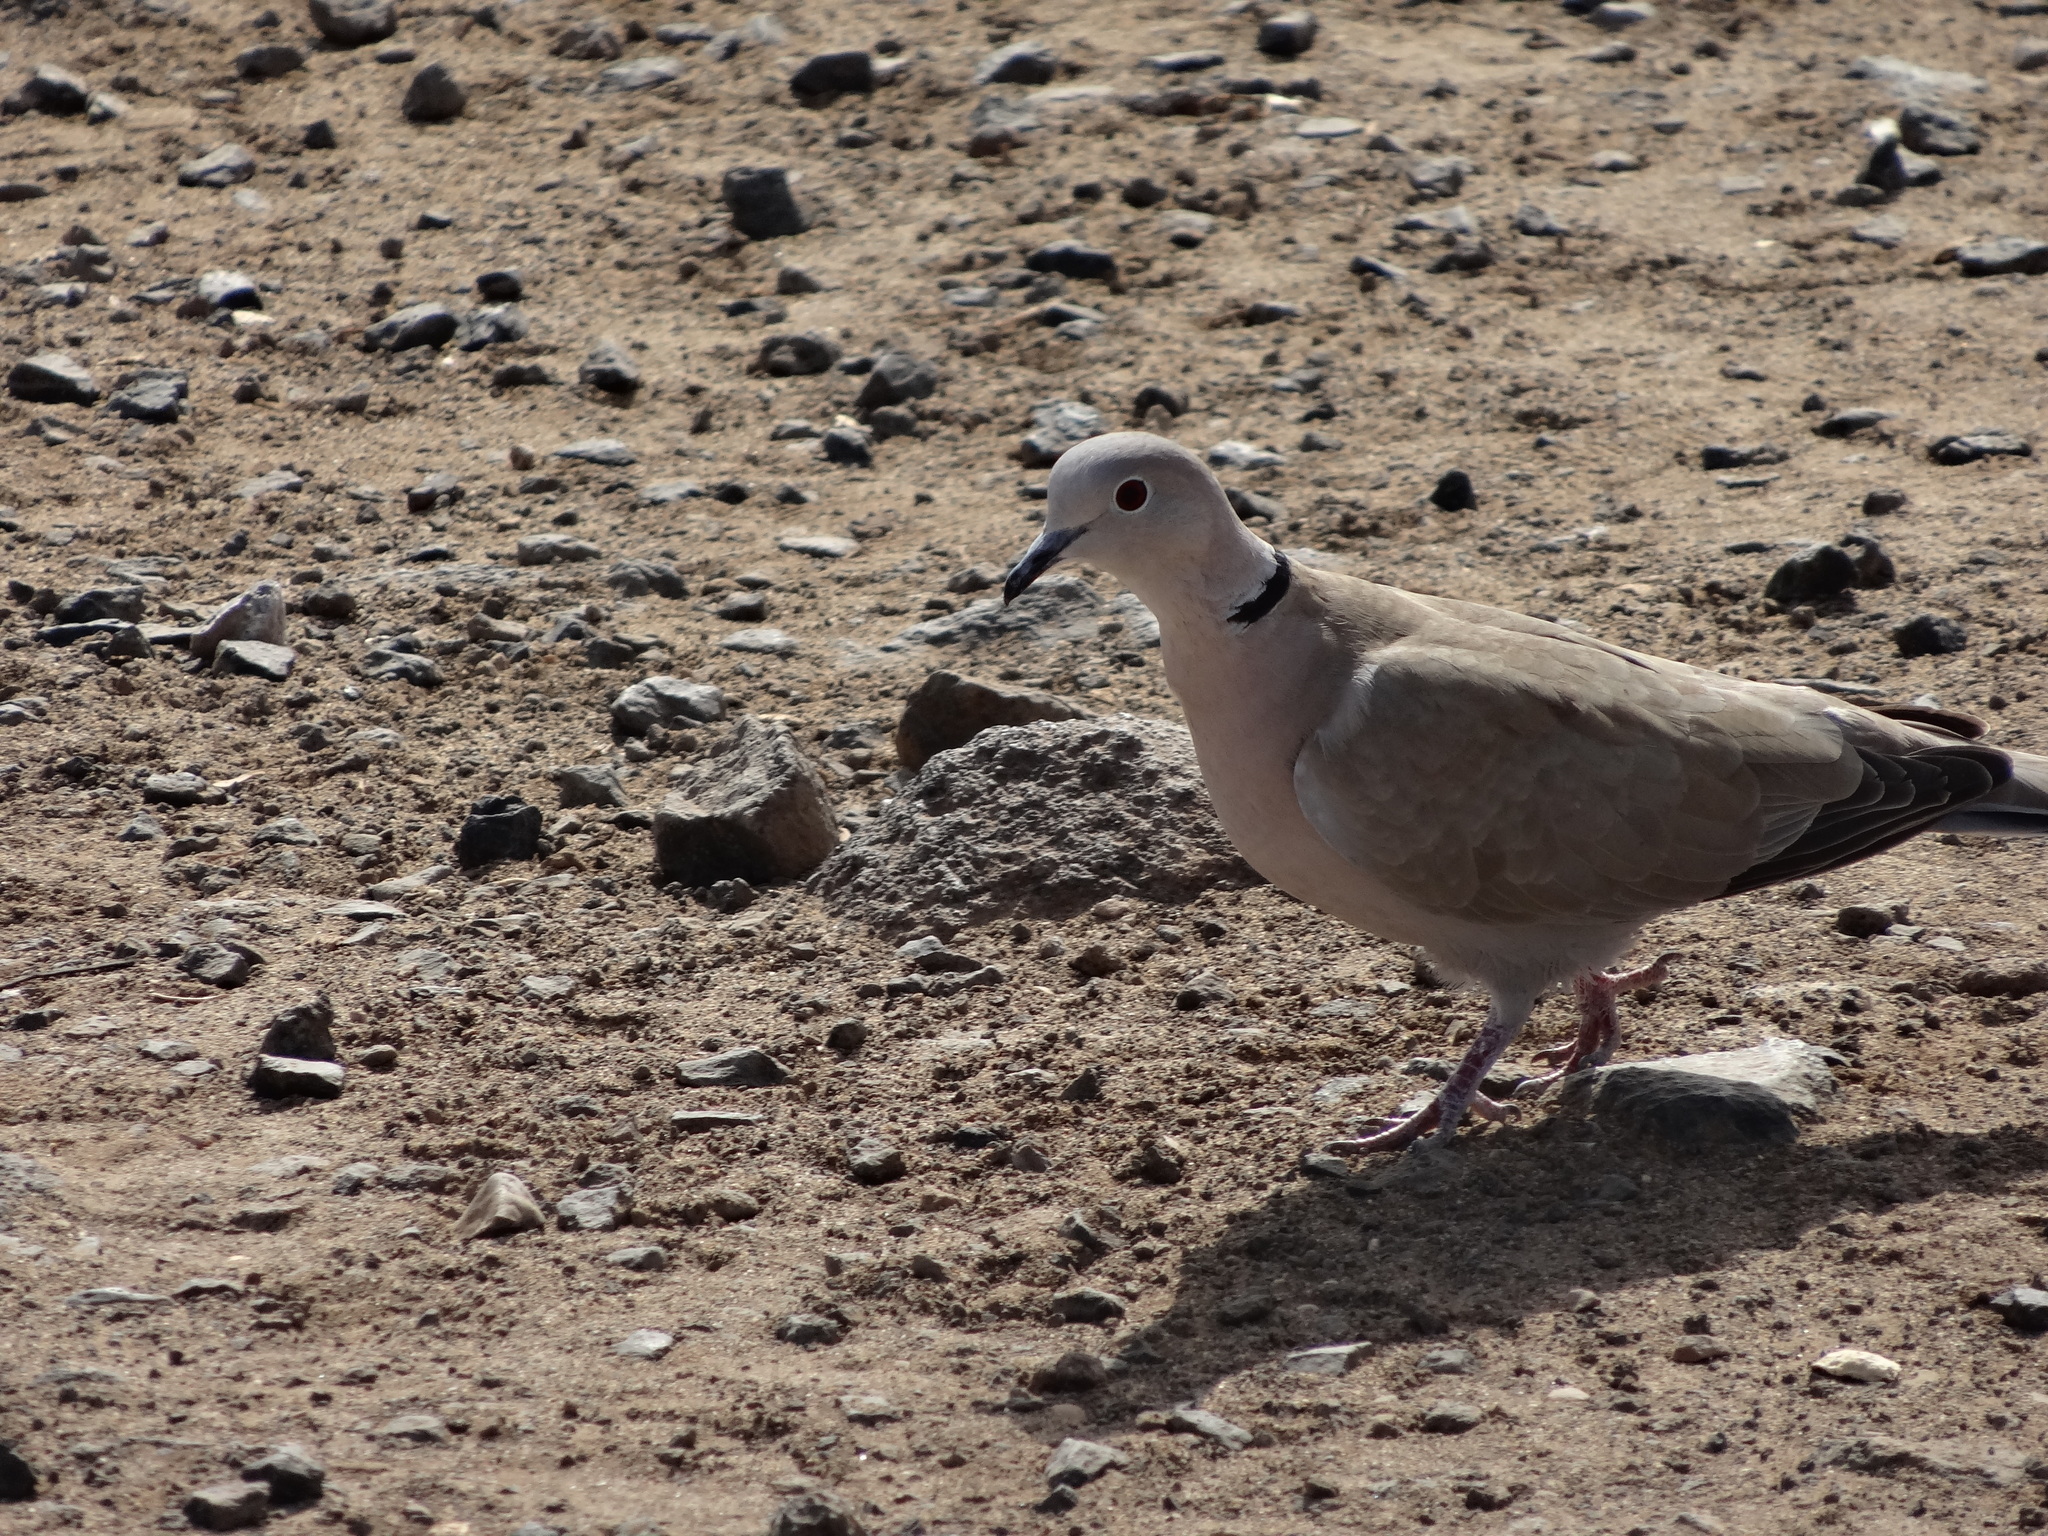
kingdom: Animalia
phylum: Chordata
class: Aves
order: Columbiformes
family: Columbidae
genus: Streptopelia
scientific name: Streptopelia decaocto
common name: Eurasian collared dove
